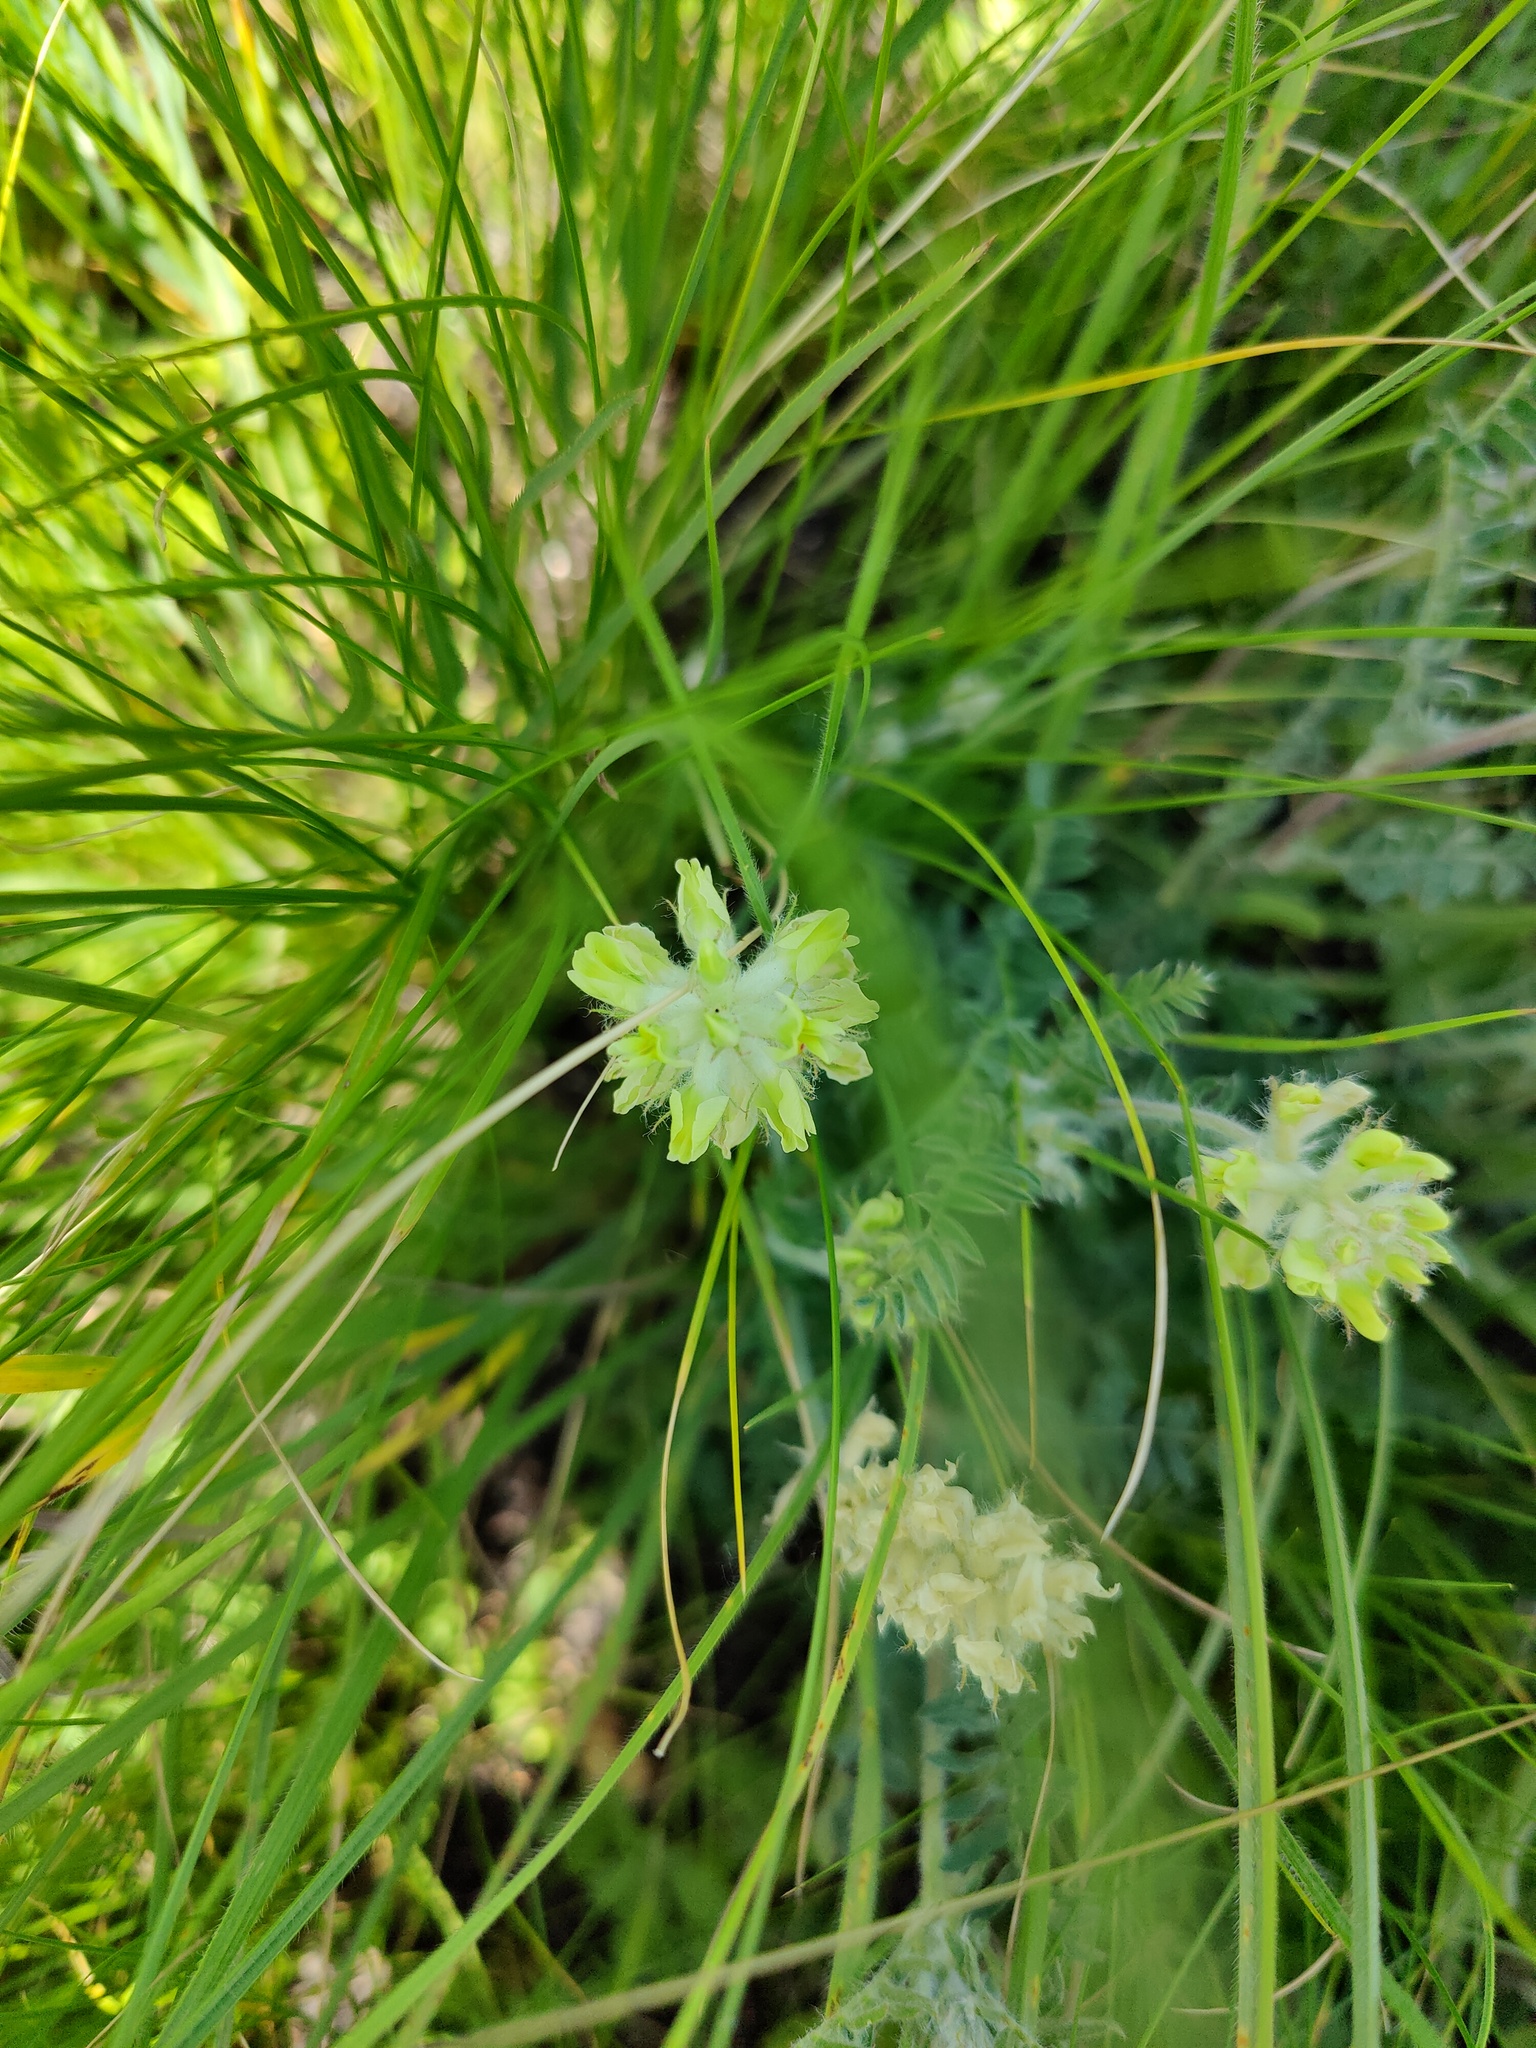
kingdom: Plantae
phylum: Tracheophyta
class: Magnoliopsida
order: Fabales
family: Fabaceae
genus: Oxytropis
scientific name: Oxytropis pilosa
